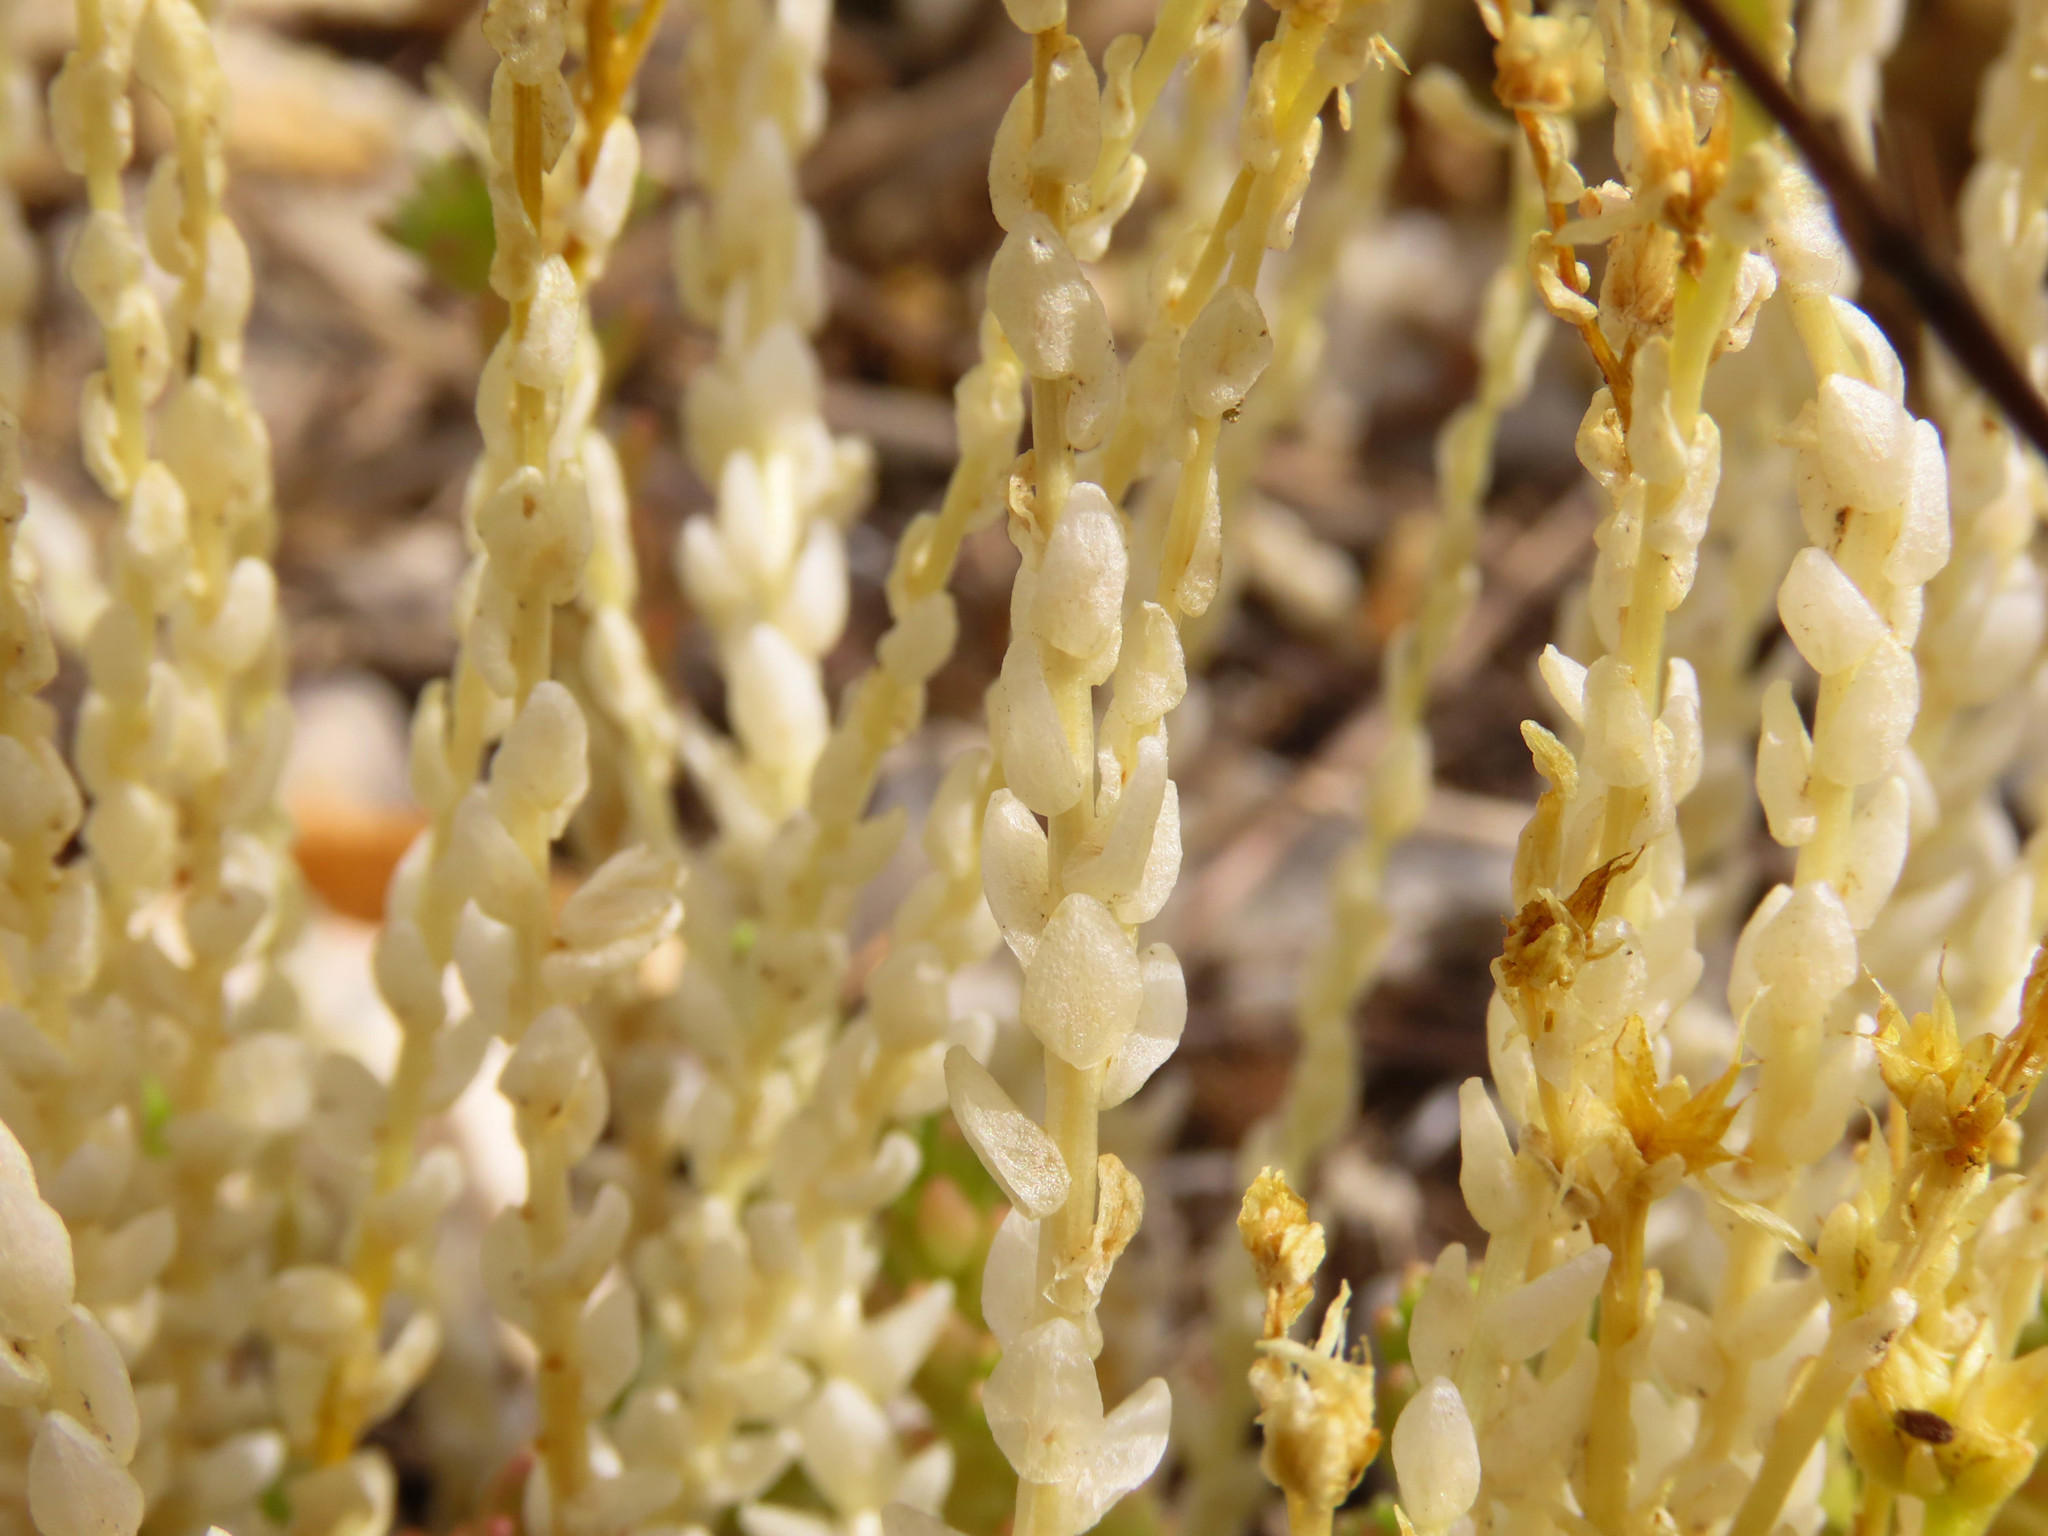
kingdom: Plantae
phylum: Tracheophyta
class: Magnoliopsida
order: Saxifragales
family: Crassulaceae
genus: Sedum
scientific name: Sedum acre
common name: Biting stonecrop
